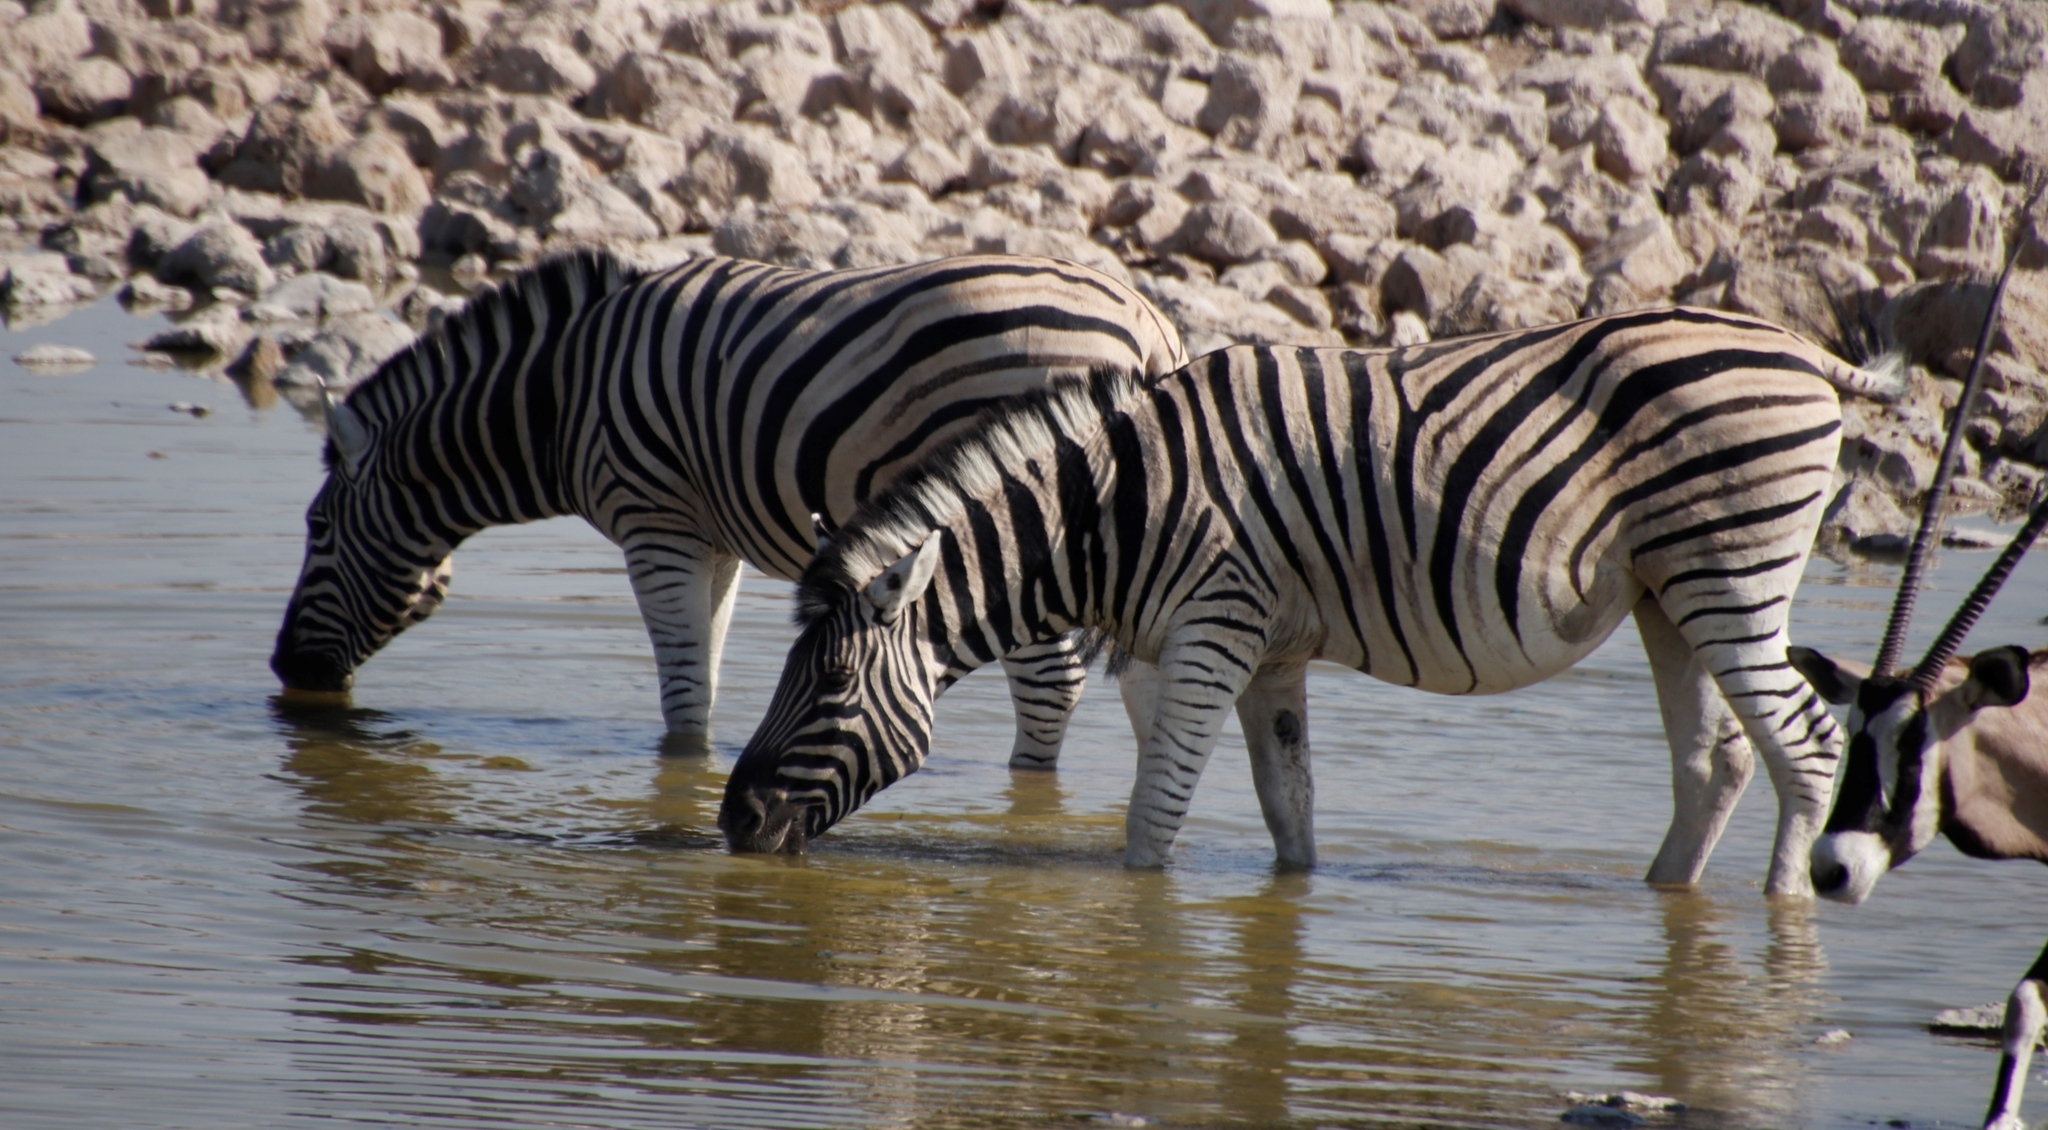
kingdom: Animalia
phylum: Chordata
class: Mammalia
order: Perissodactyla
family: Equidae
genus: Equus
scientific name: Equus quagga
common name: Plains zebra
